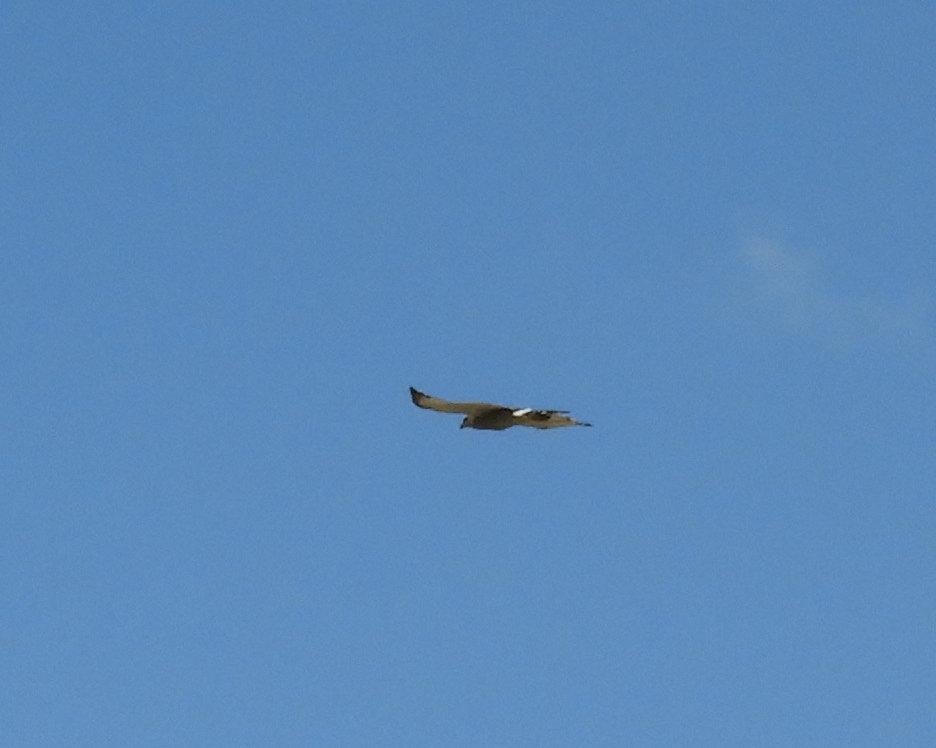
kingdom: Animalia
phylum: Chordata
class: Aves
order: Accipitriformes
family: Accipitridae
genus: Buteo
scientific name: Buteo nitidus
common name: Grey-lined hawk
